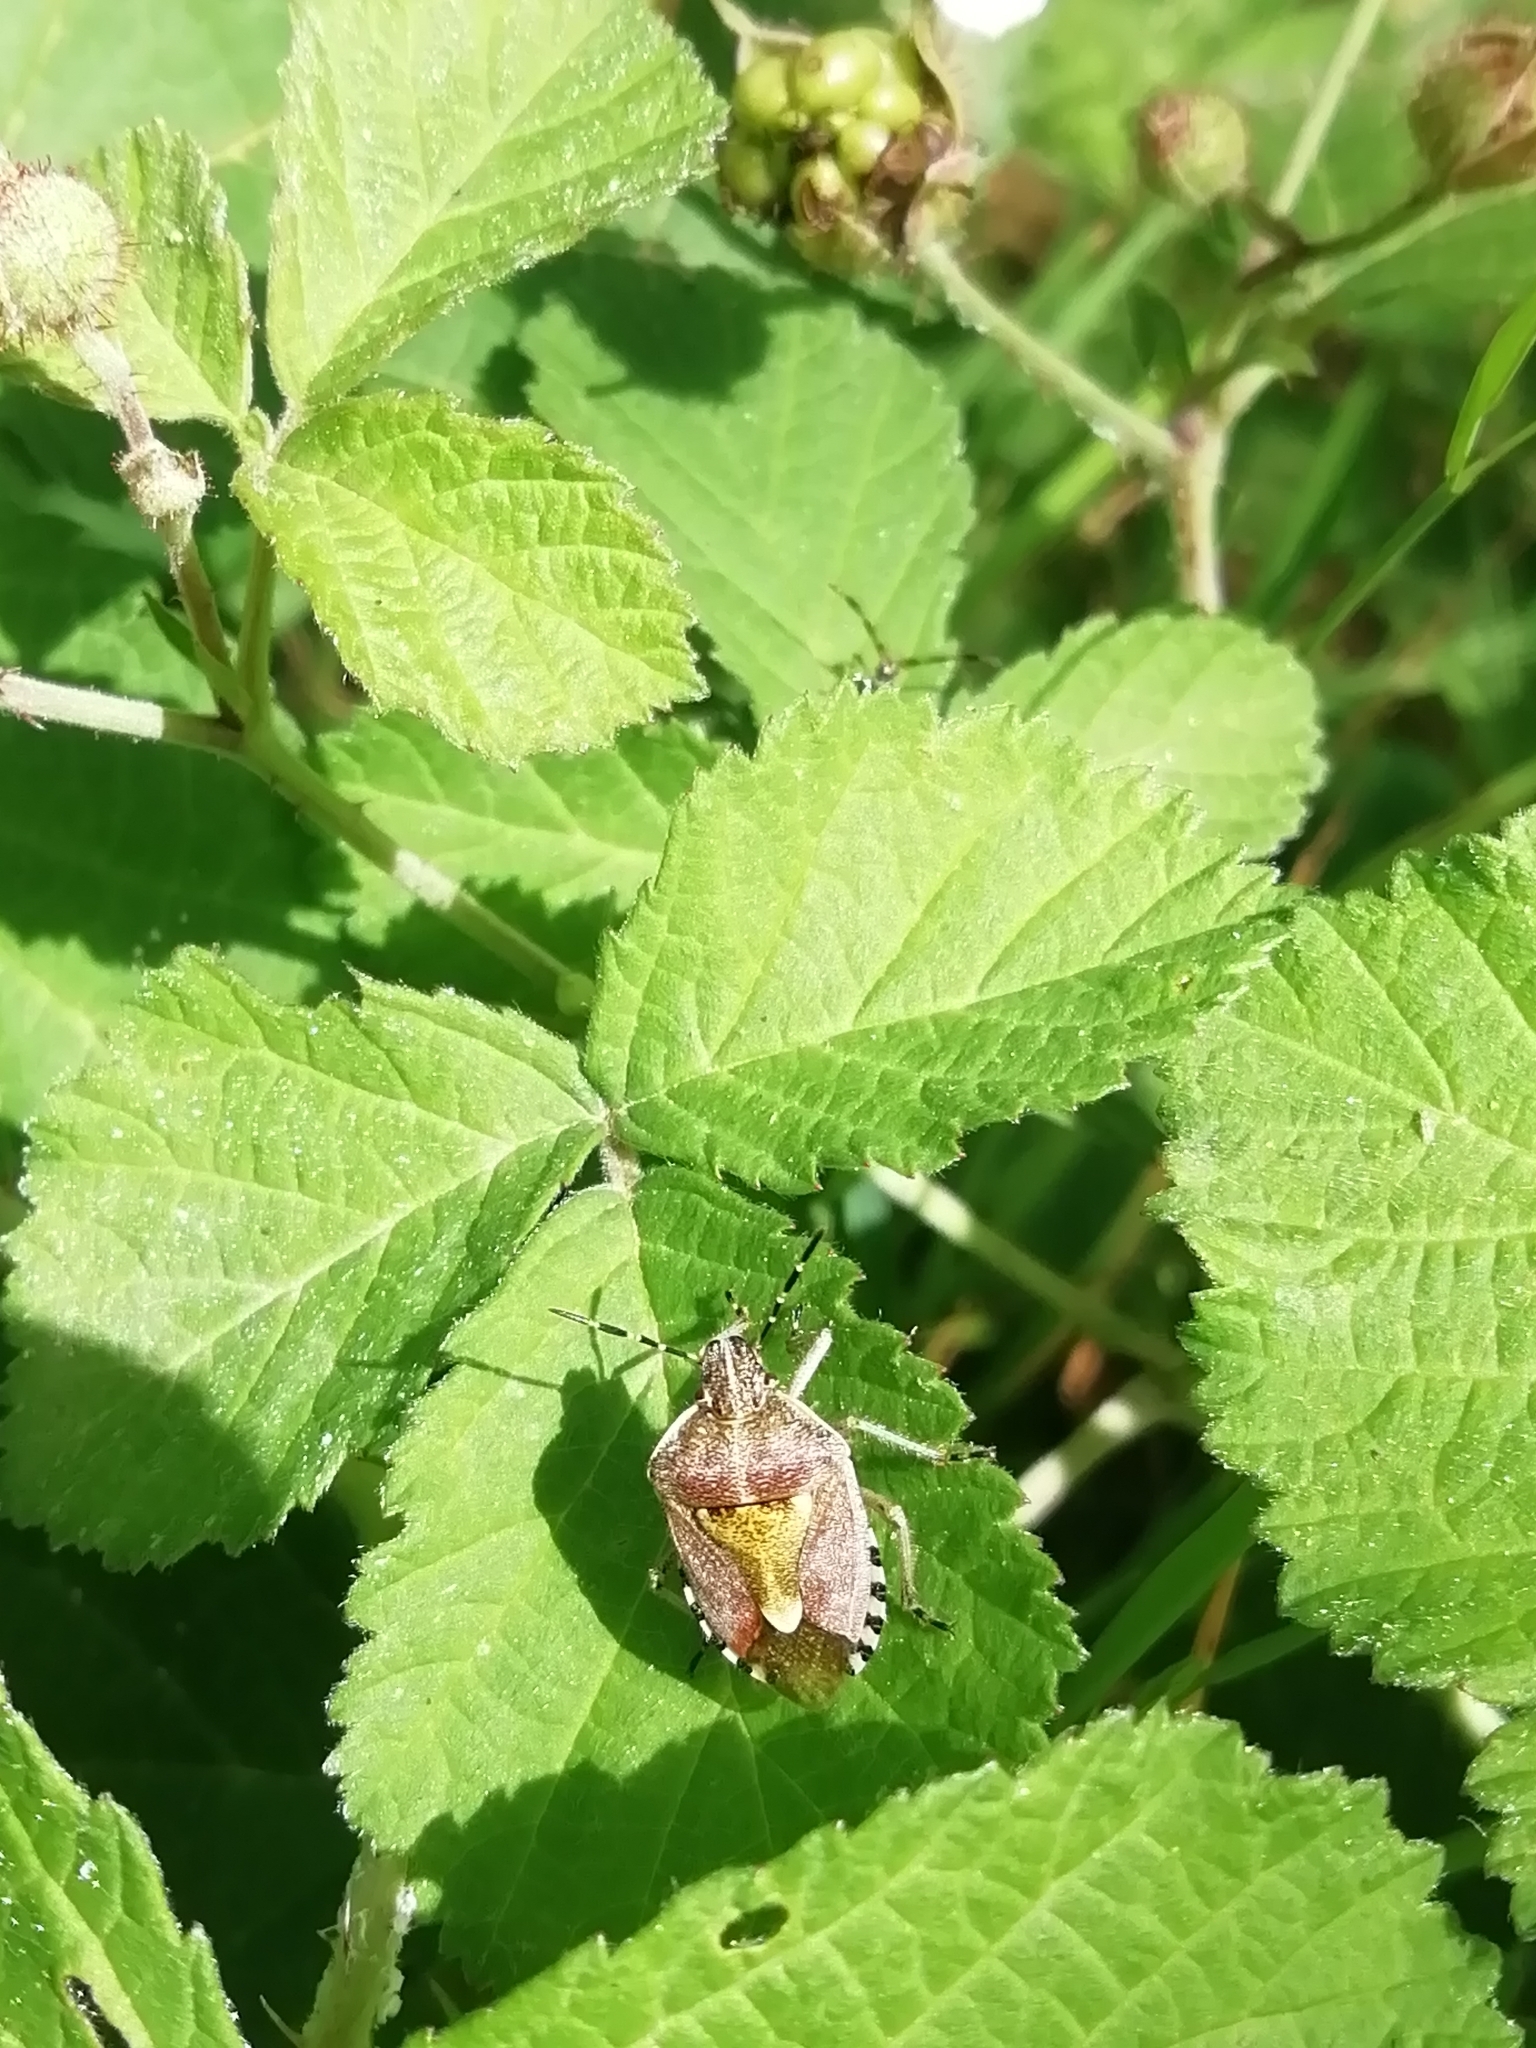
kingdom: Animalia
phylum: Arthropoda
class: Insecta
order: Hemiptera
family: Pentatomidae
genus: Dolycoris
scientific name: Dolycoris baccarum
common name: Sloe bug
